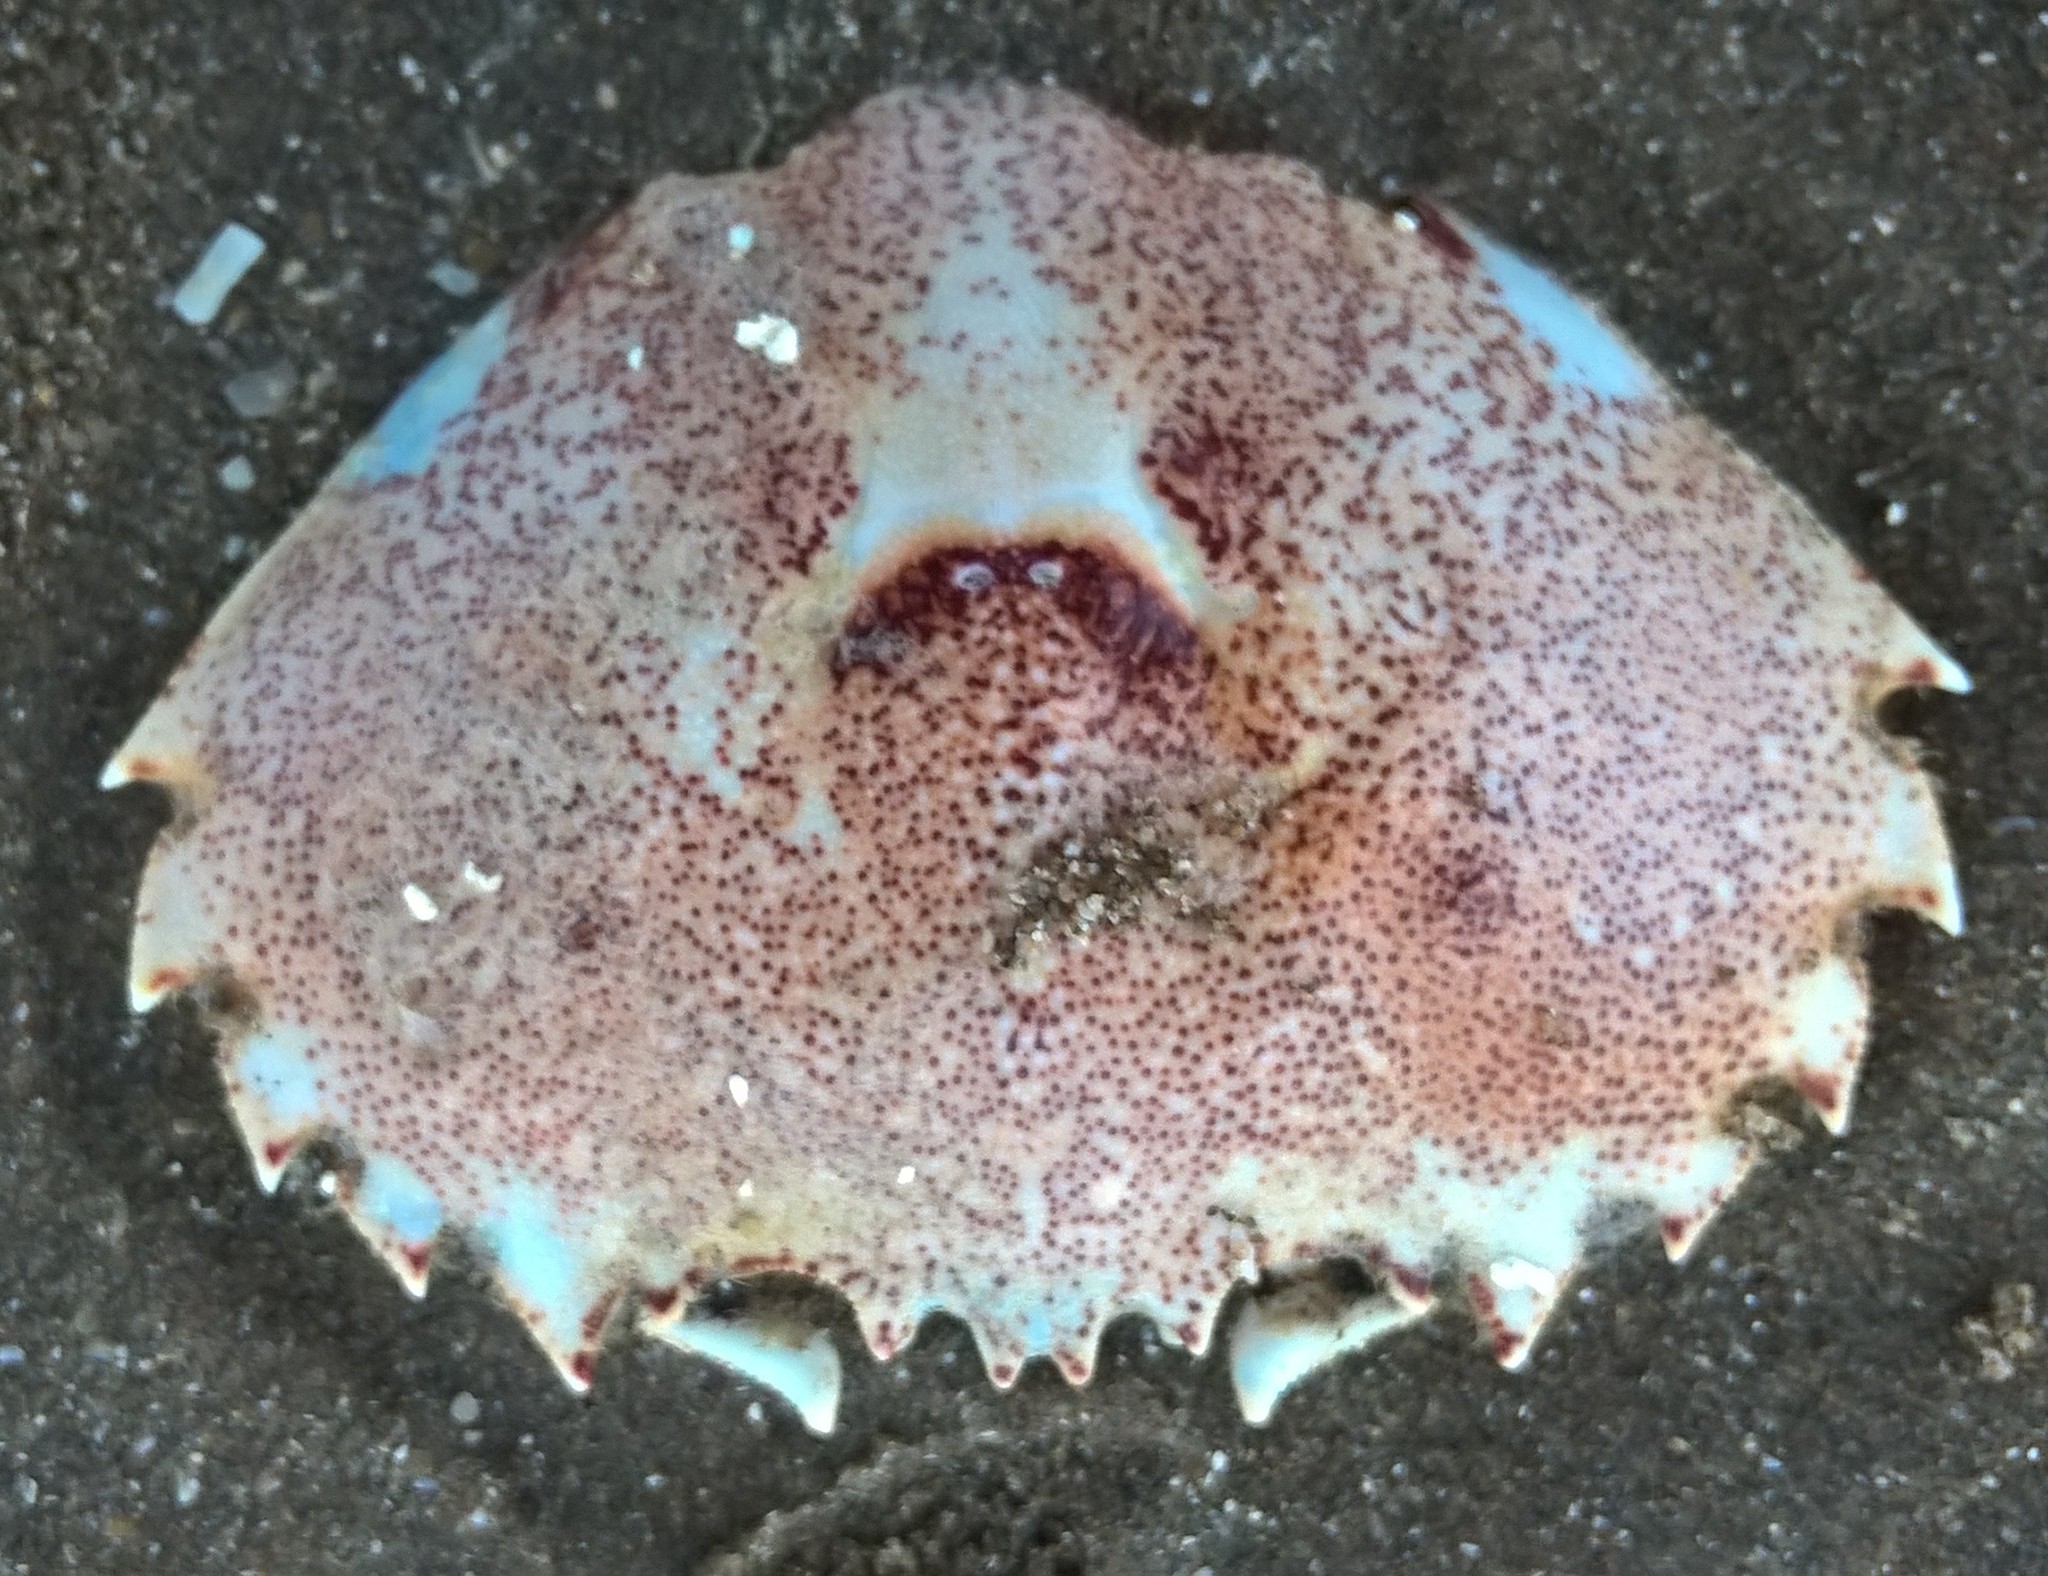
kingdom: Animalia
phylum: Arthropoda
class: Malacostraca
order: Decapoda
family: Ovalipidae
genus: Ovalipes
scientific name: Ovalipes trimaculatus
